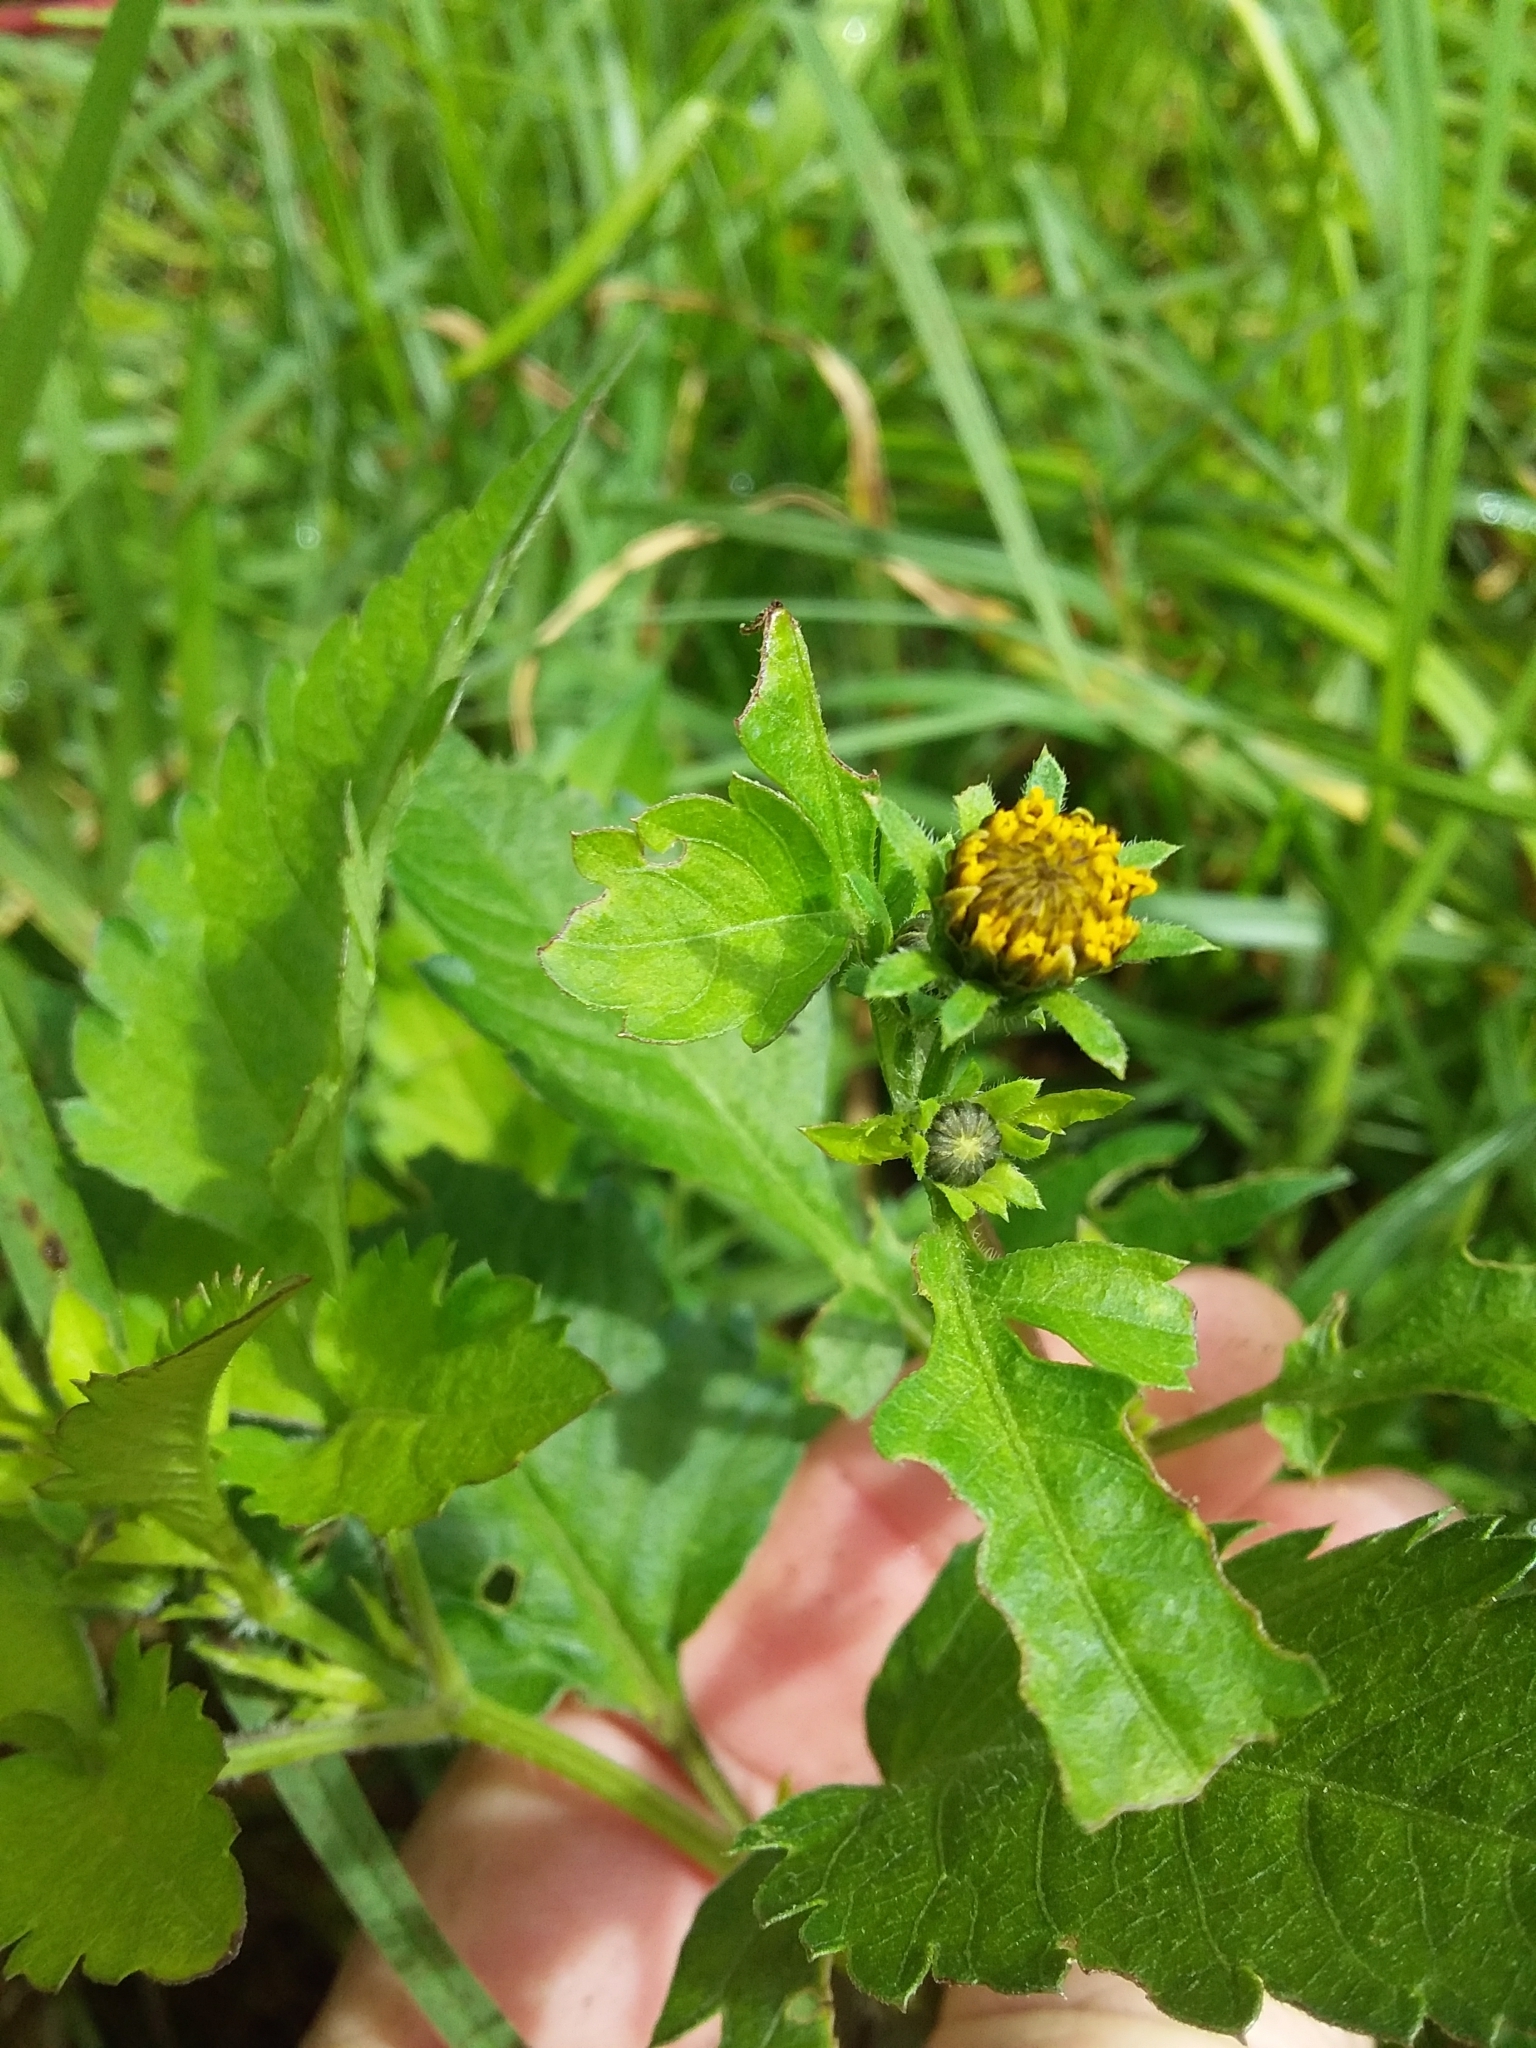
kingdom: Plantae
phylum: Tracheophyta
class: Magnoliopsida
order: Asterales
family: Asteraceae
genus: Bidens
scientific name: Bidens pilosa
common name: Black-jack
